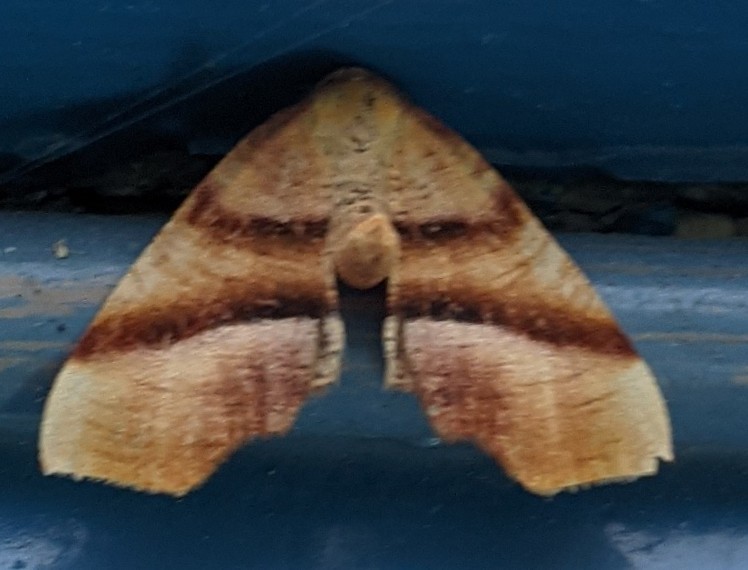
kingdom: Animalia
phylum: Arthropoda
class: Insecta
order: Lepidoptera
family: Geometridae
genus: Plagodis
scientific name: Plagodis phlogosaria
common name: Straight-lined plagodis
